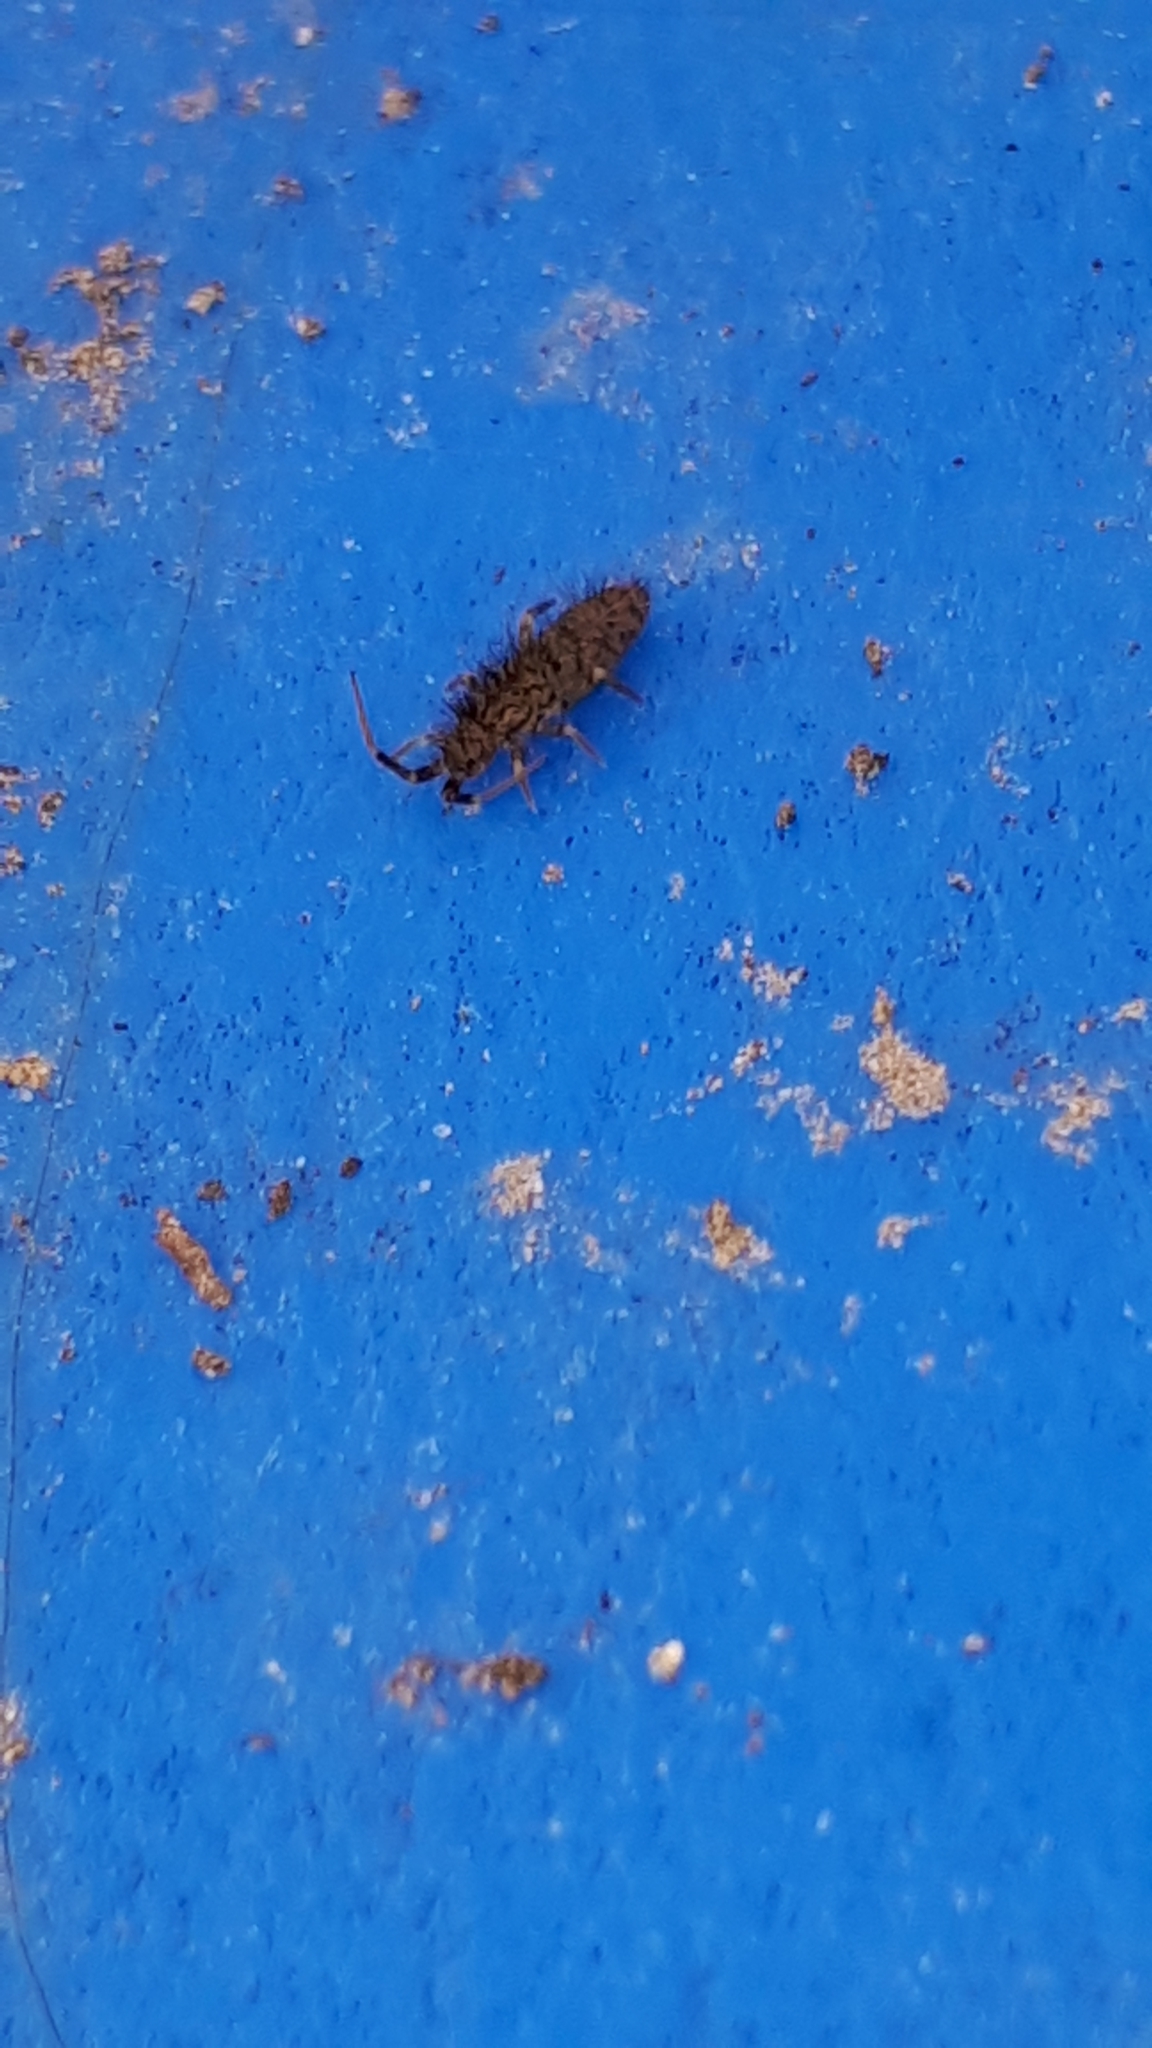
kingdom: Animalia
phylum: Arthropoda
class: Collembola
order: Entomobryomorpha
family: Orchesellidae
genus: Orchesella
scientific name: Orchesella villosa
